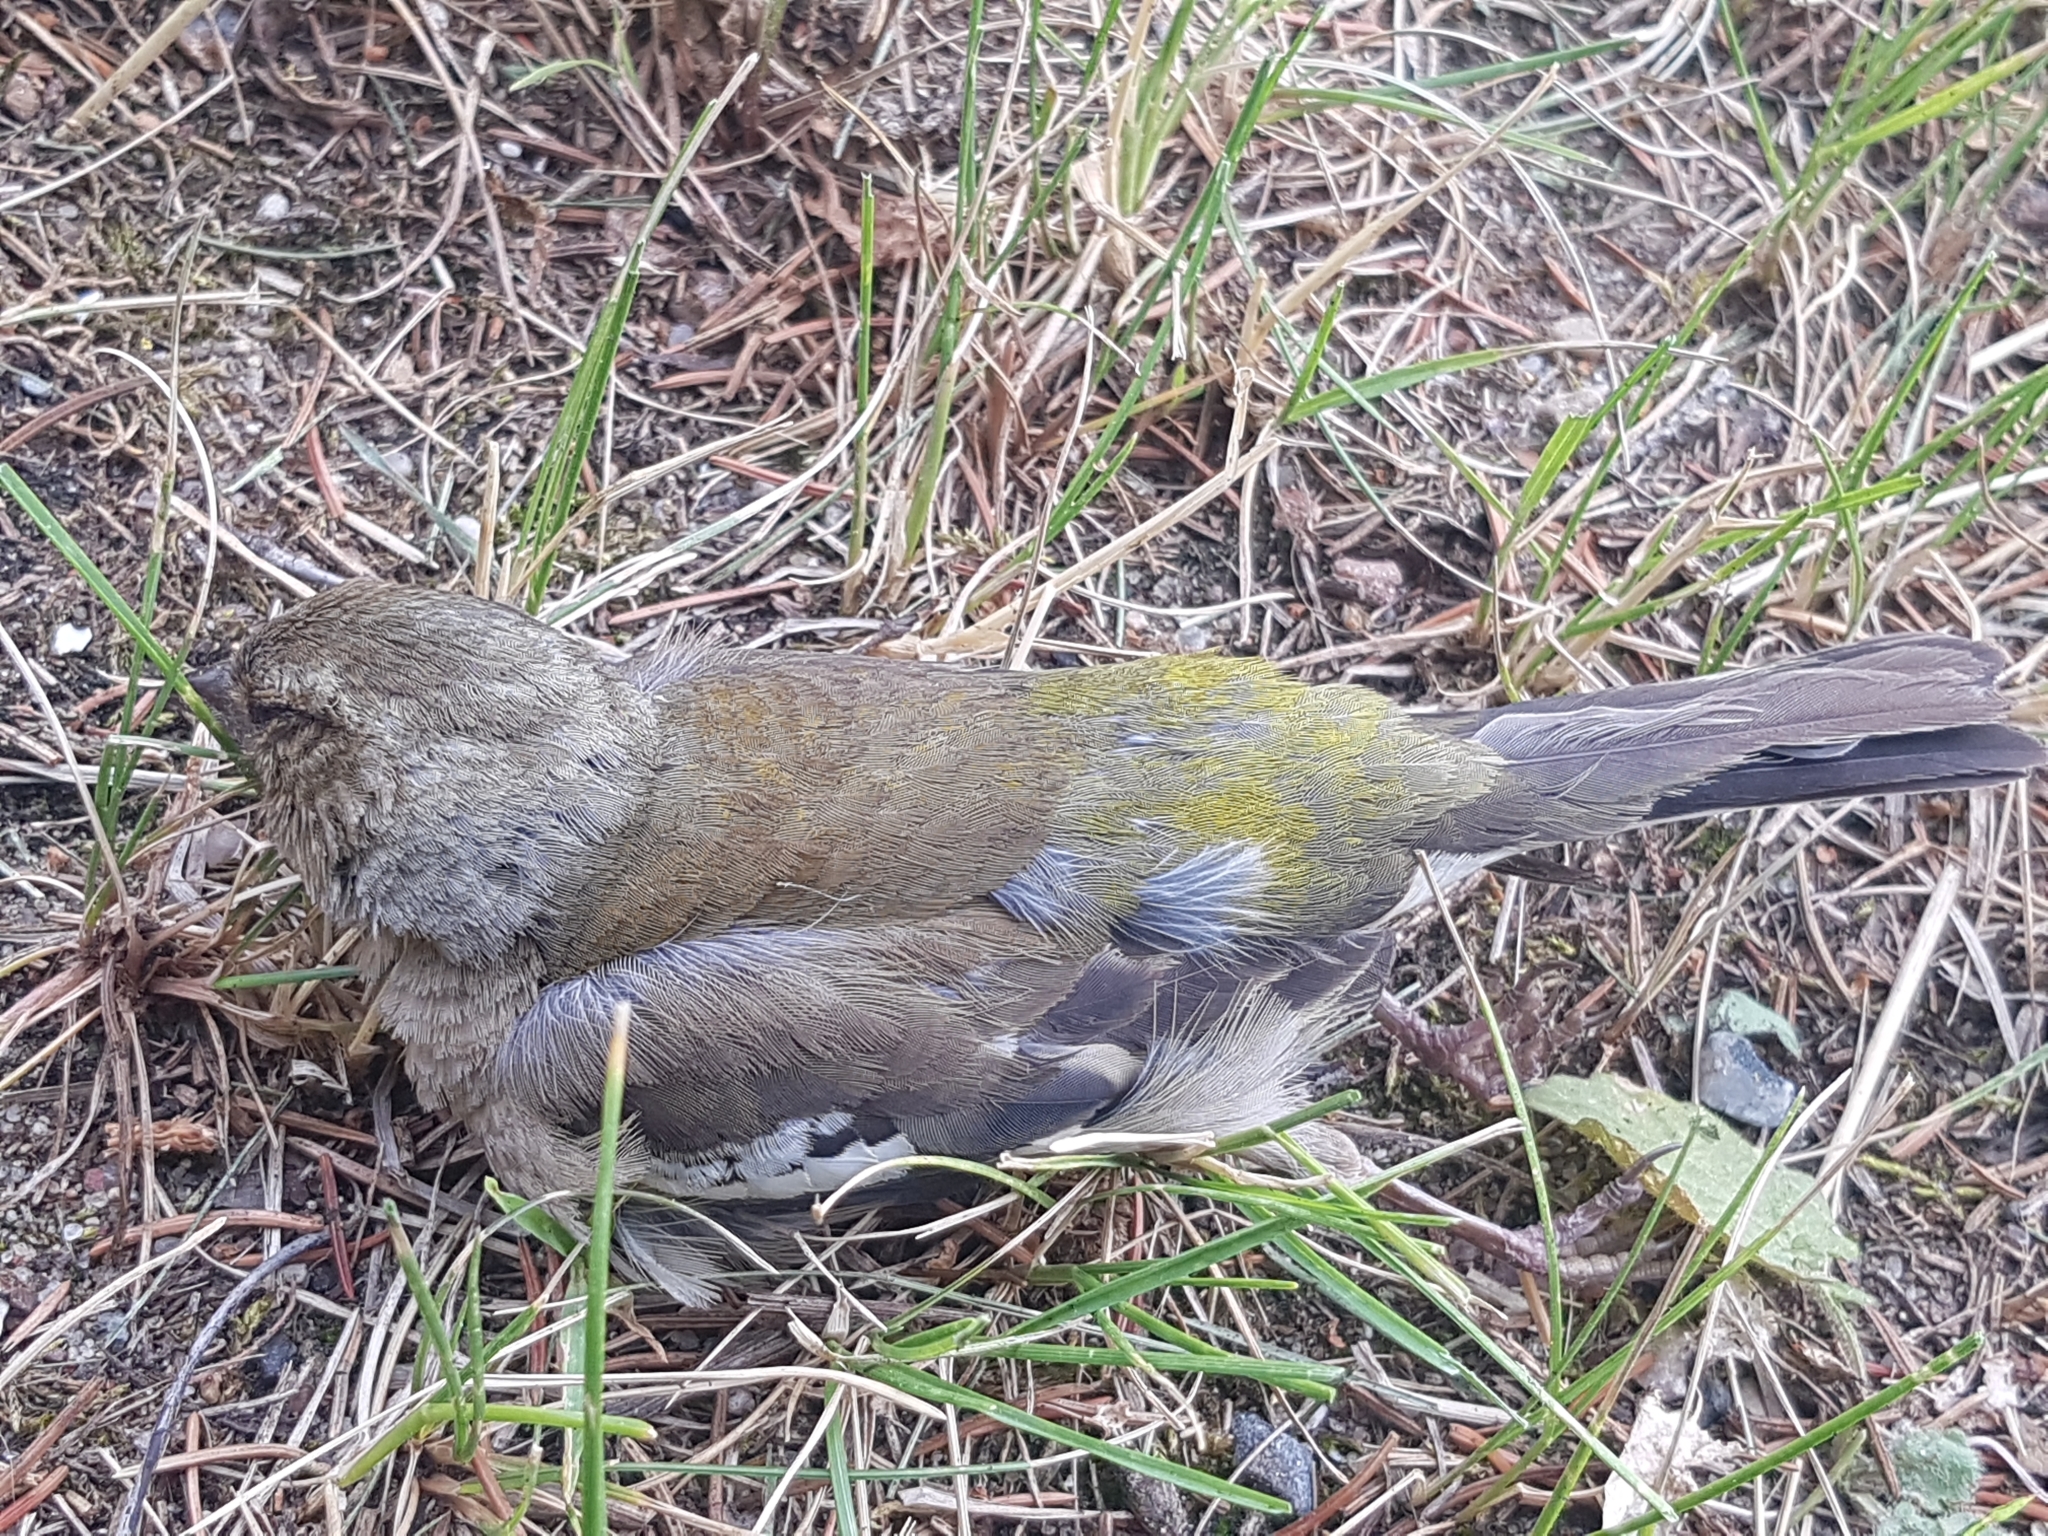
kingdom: Animalia
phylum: Chordata
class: Aves
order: Passeriformes
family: Fringillidae
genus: Fringilla
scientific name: Fringilla coelebs
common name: Common chaffinch
